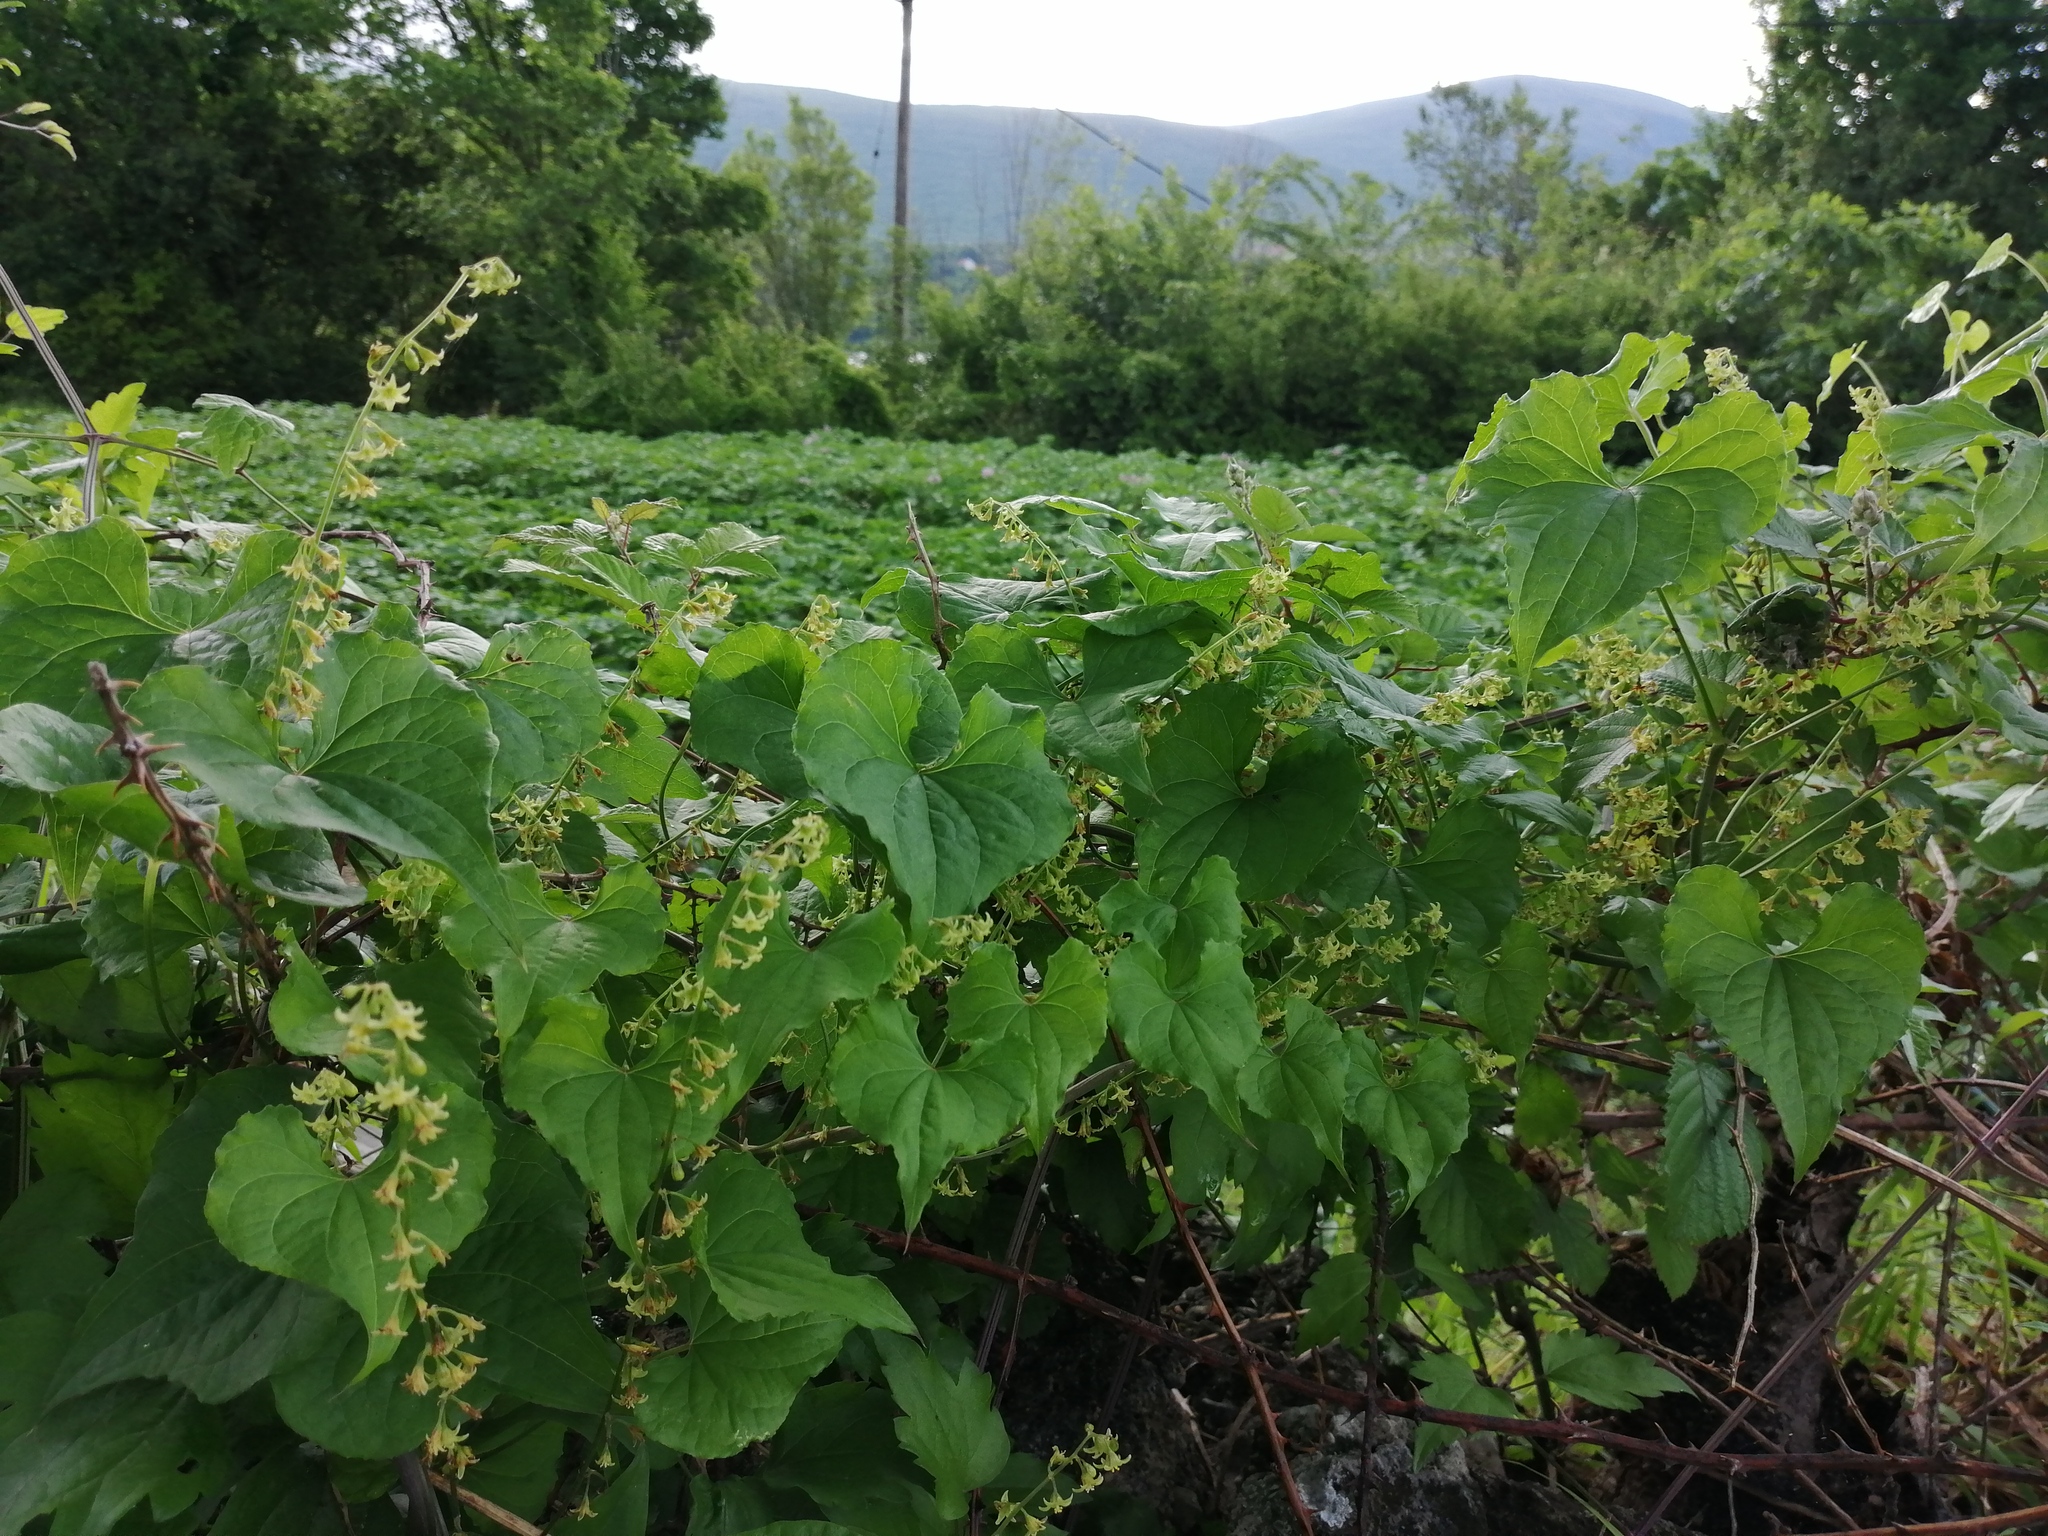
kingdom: Plantae
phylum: Tracheophyta
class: Liliopsida
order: Dioscoreales
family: Dioscoreaceae
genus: Dioscorea
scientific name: Dioscorea communis
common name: Black-bindweed
